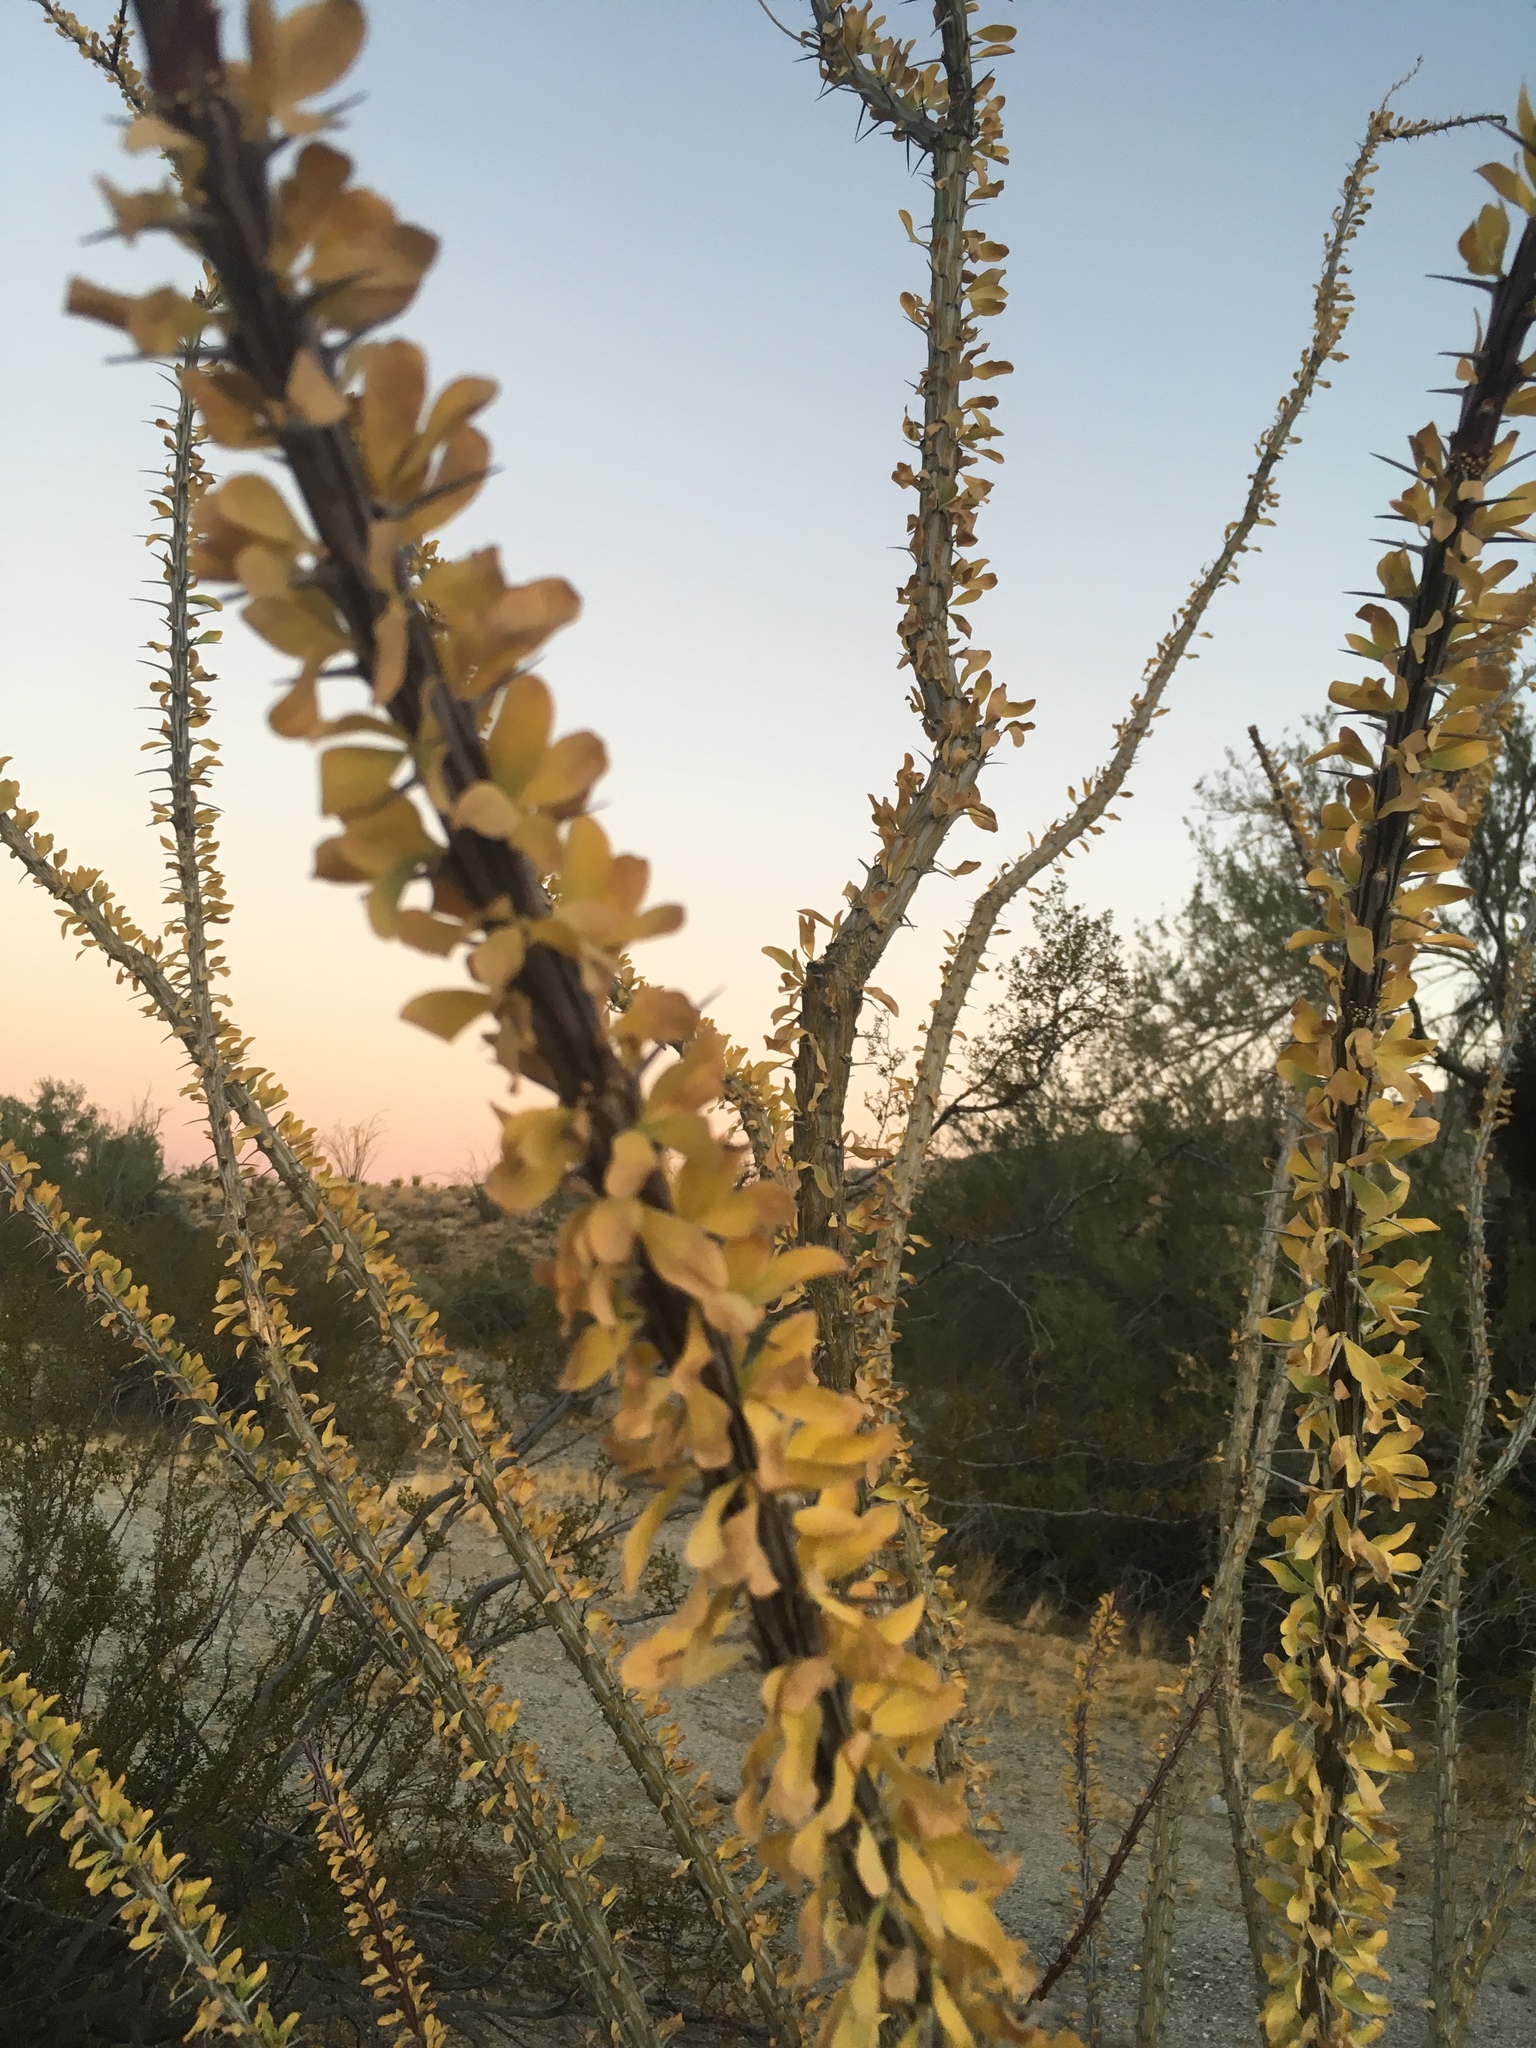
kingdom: Plantae
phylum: Tracheophyta
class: Magnoliopsida
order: Ericales
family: Fouquieriaceae
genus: Fouquieria
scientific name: Fouquieria splendens
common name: Vine-cactus
